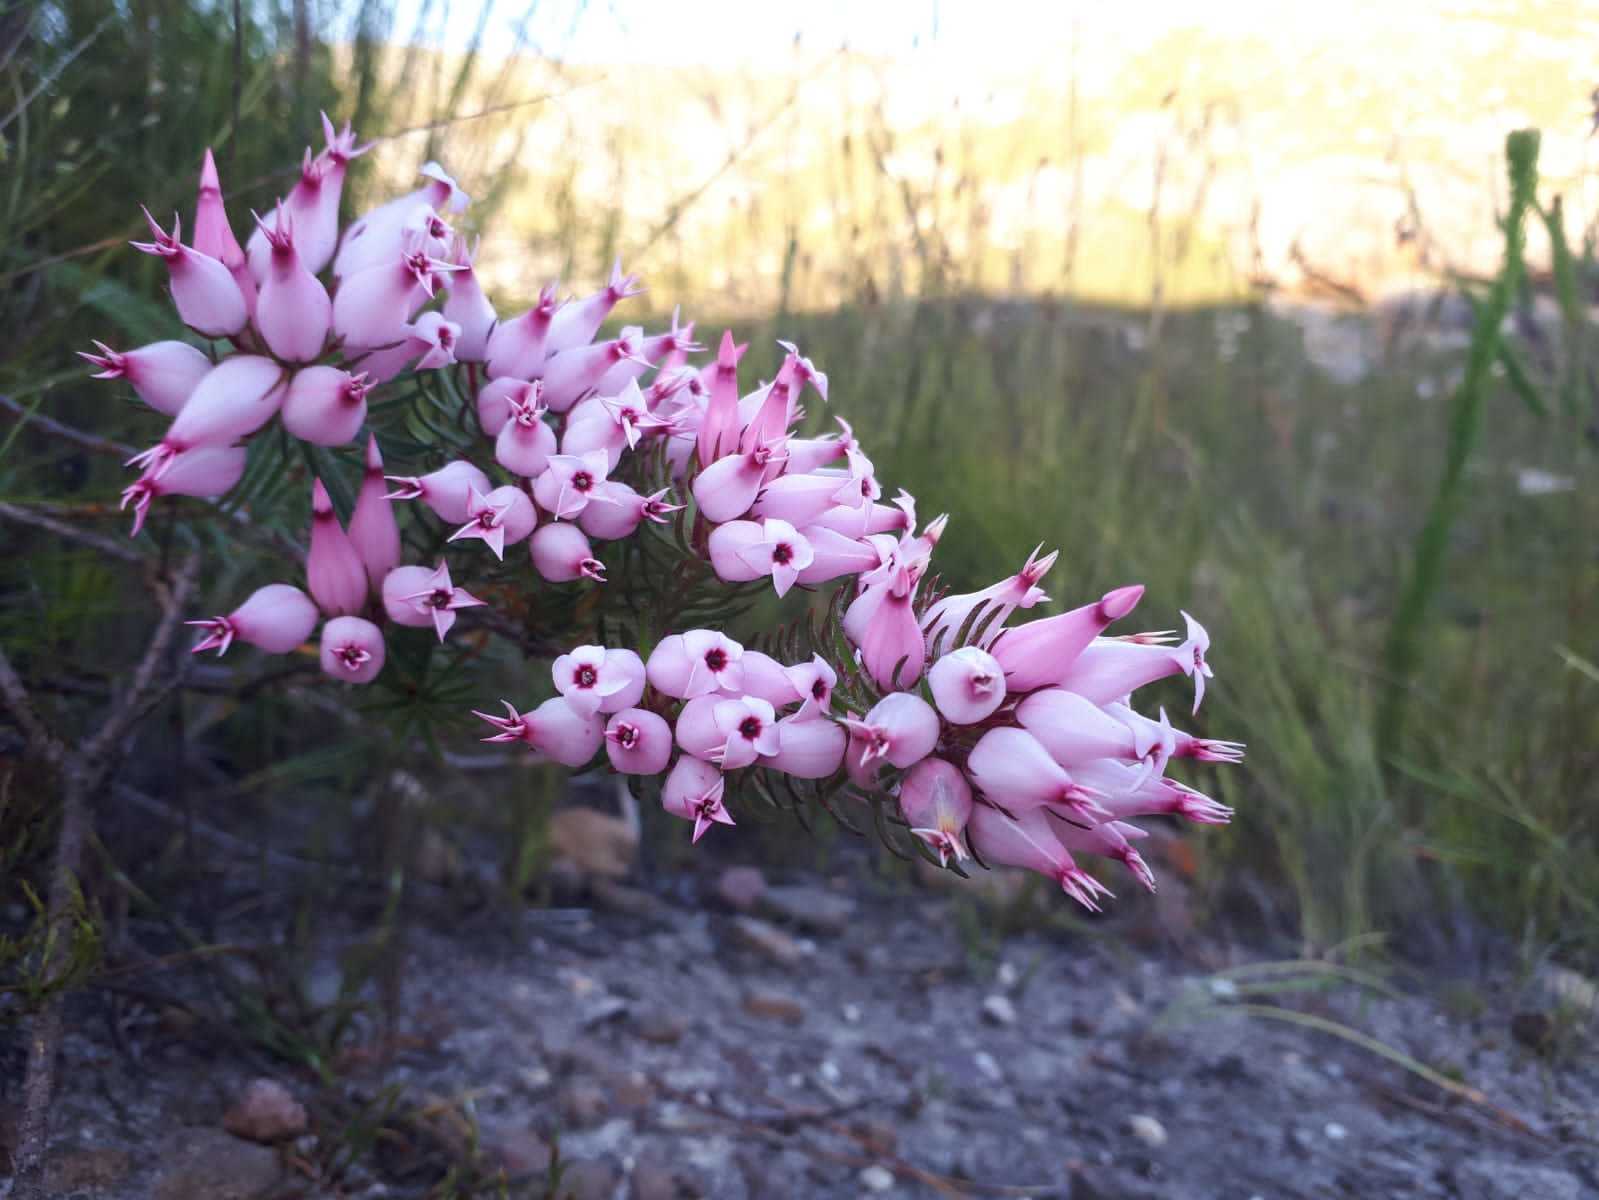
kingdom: Plantae
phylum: Tracheophyta
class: Magnoliopsida
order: Ericales
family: Ericaceae
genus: Erica
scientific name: Erica ventricosa
